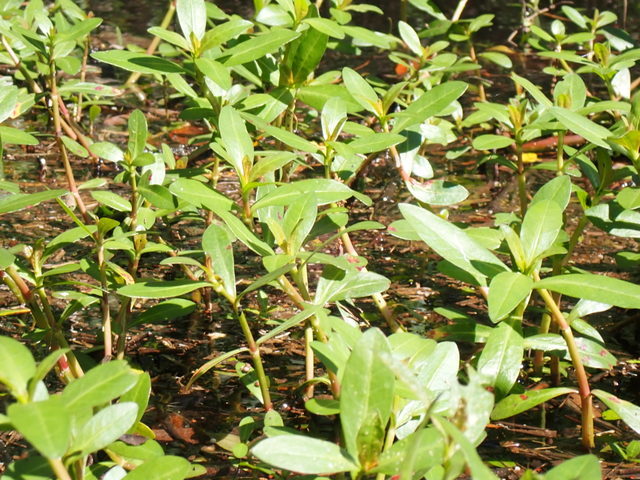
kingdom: Plantae
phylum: Tracheophyta
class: Magnoliopsida
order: Caryophyllales
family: Amaranthaceae
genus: Alternanthera
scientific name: Alternanthera philoxeroides
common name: Alligatorweed
